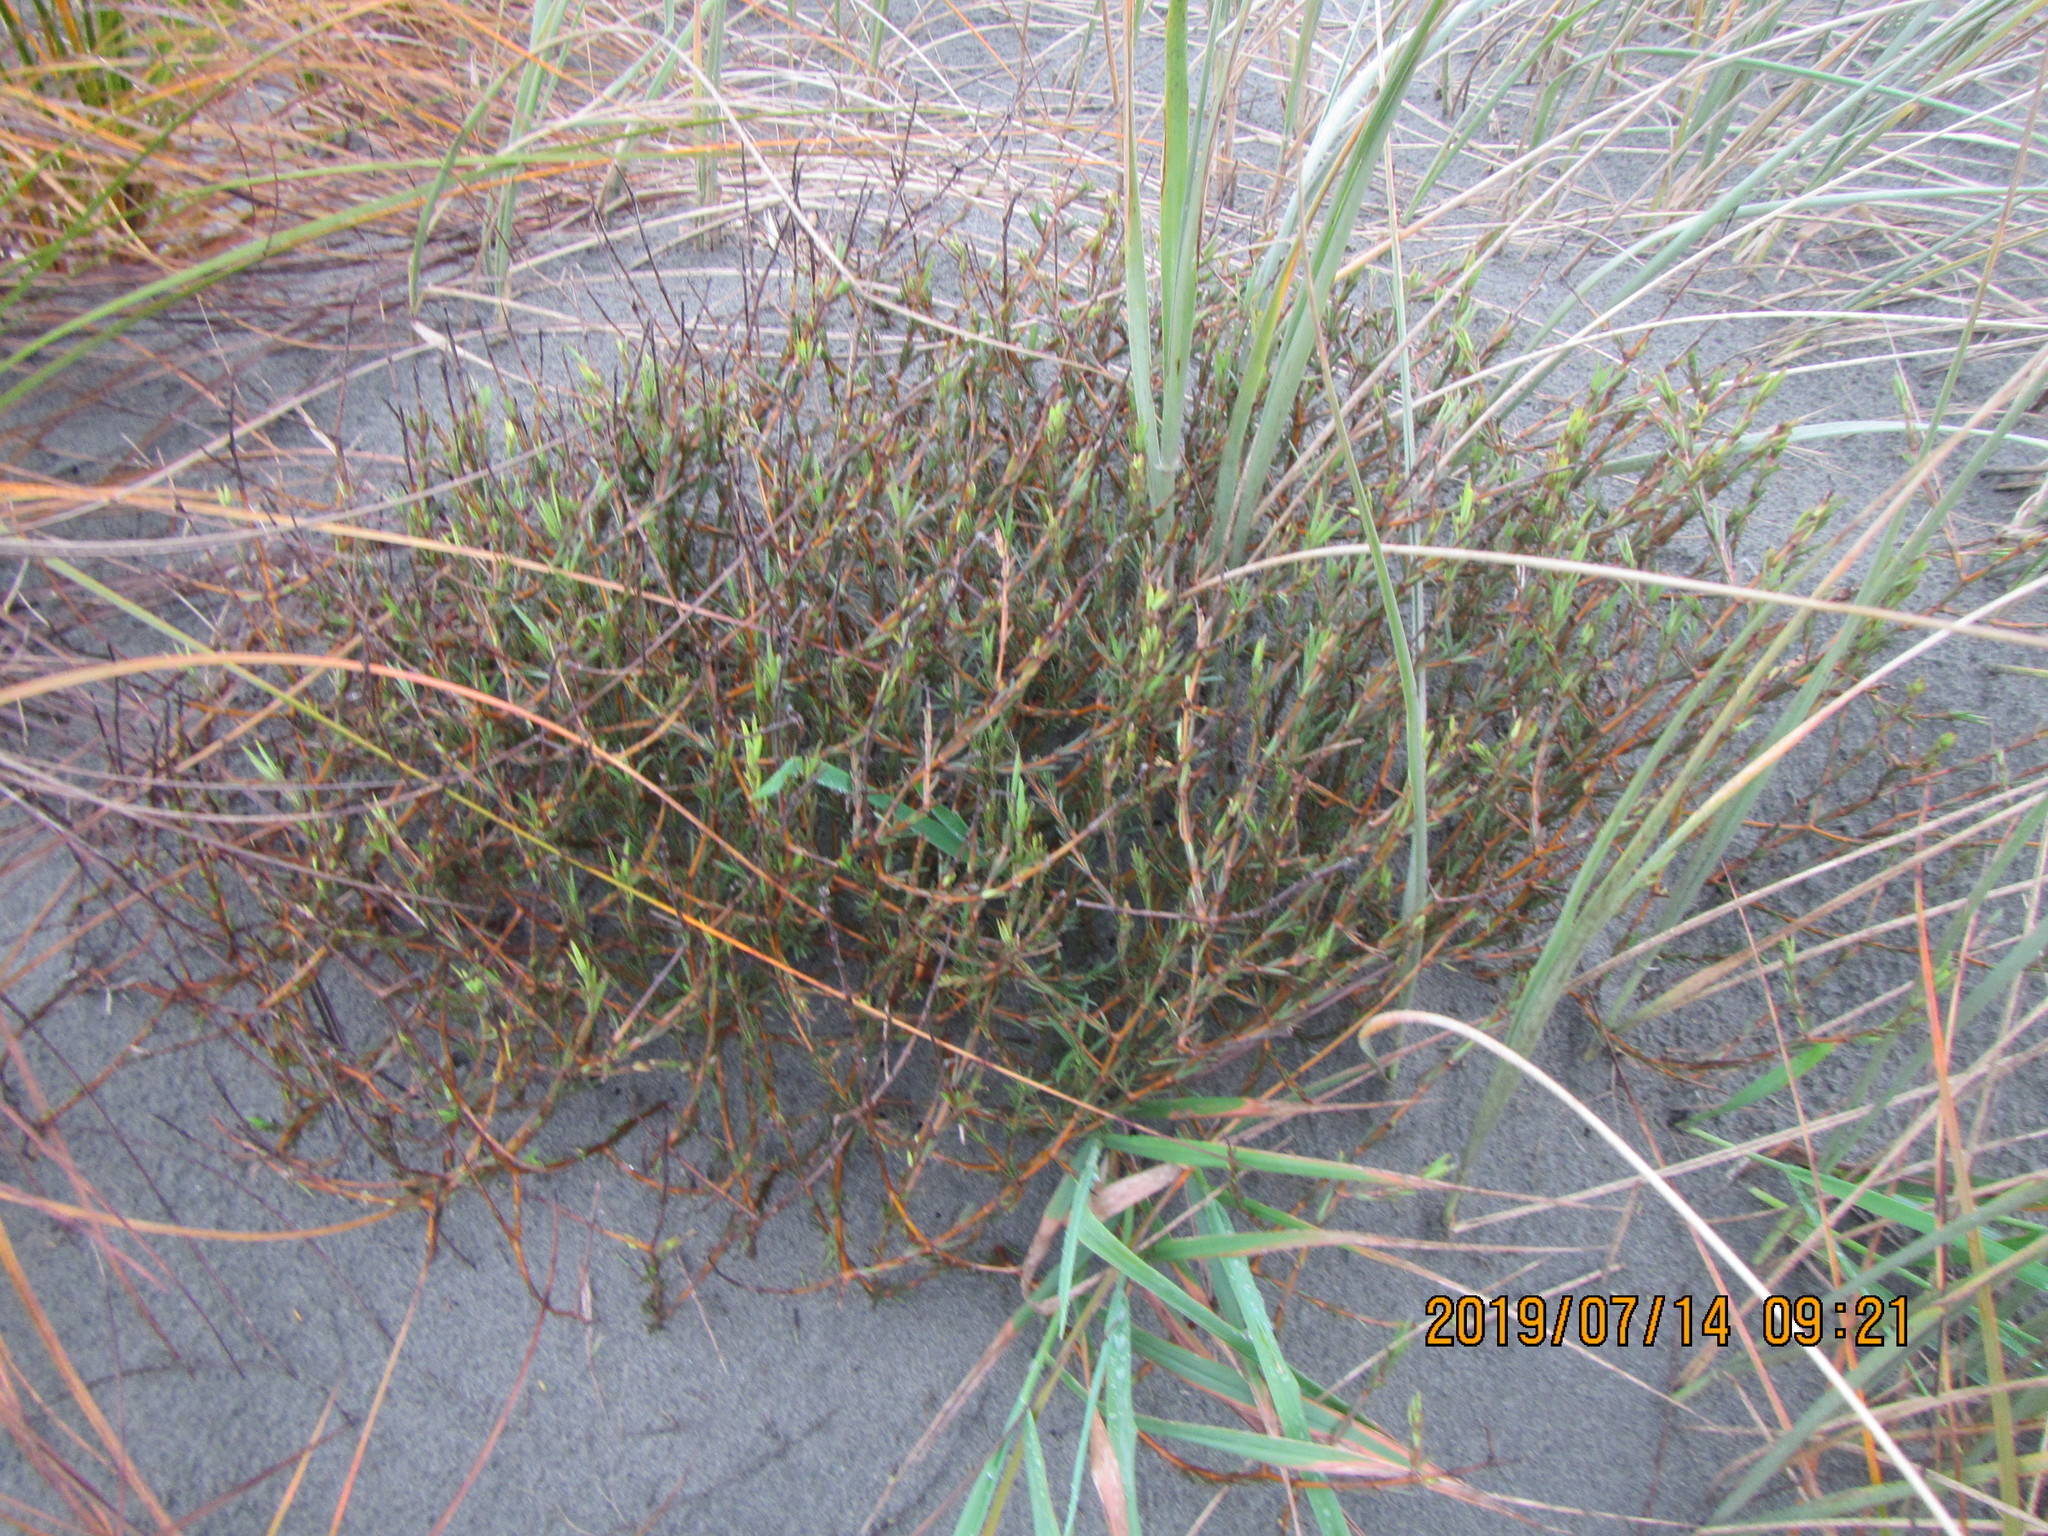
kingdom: Plantae
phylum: Tracheophyta
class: Magnoliopsida
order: Gentianales
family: Rubiaceae
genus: Coprosma
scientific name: Coprosma acerosa
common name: Sand coprosma
